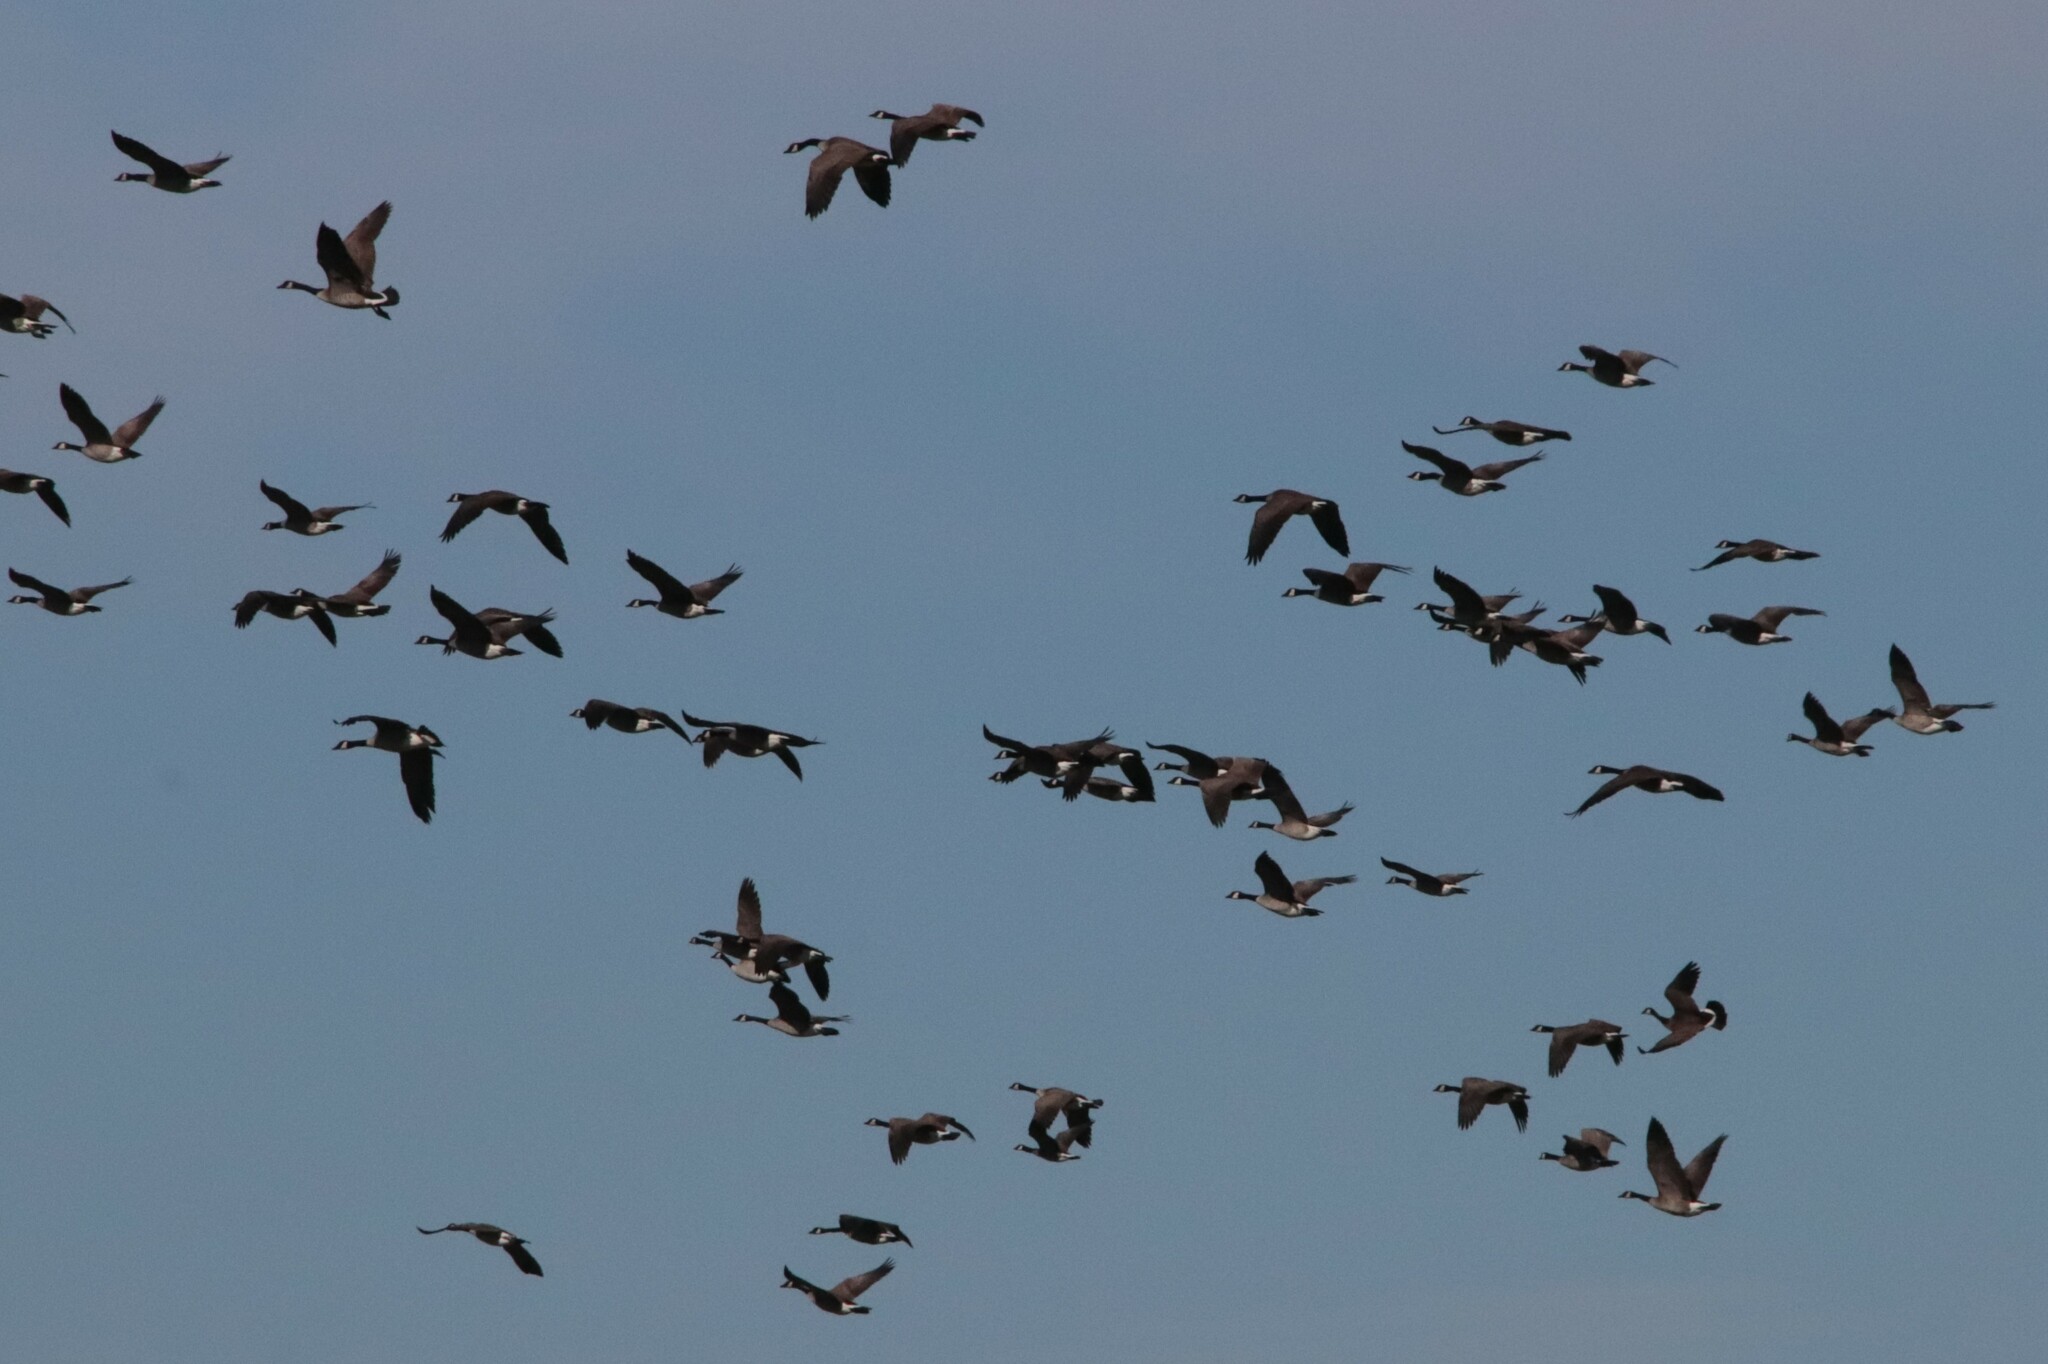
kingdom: Animalia
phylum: Chordata
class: Aves
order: Anseriformes
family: Anatidae
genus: Branta
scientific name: Branta canadensis
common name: Canada goose
